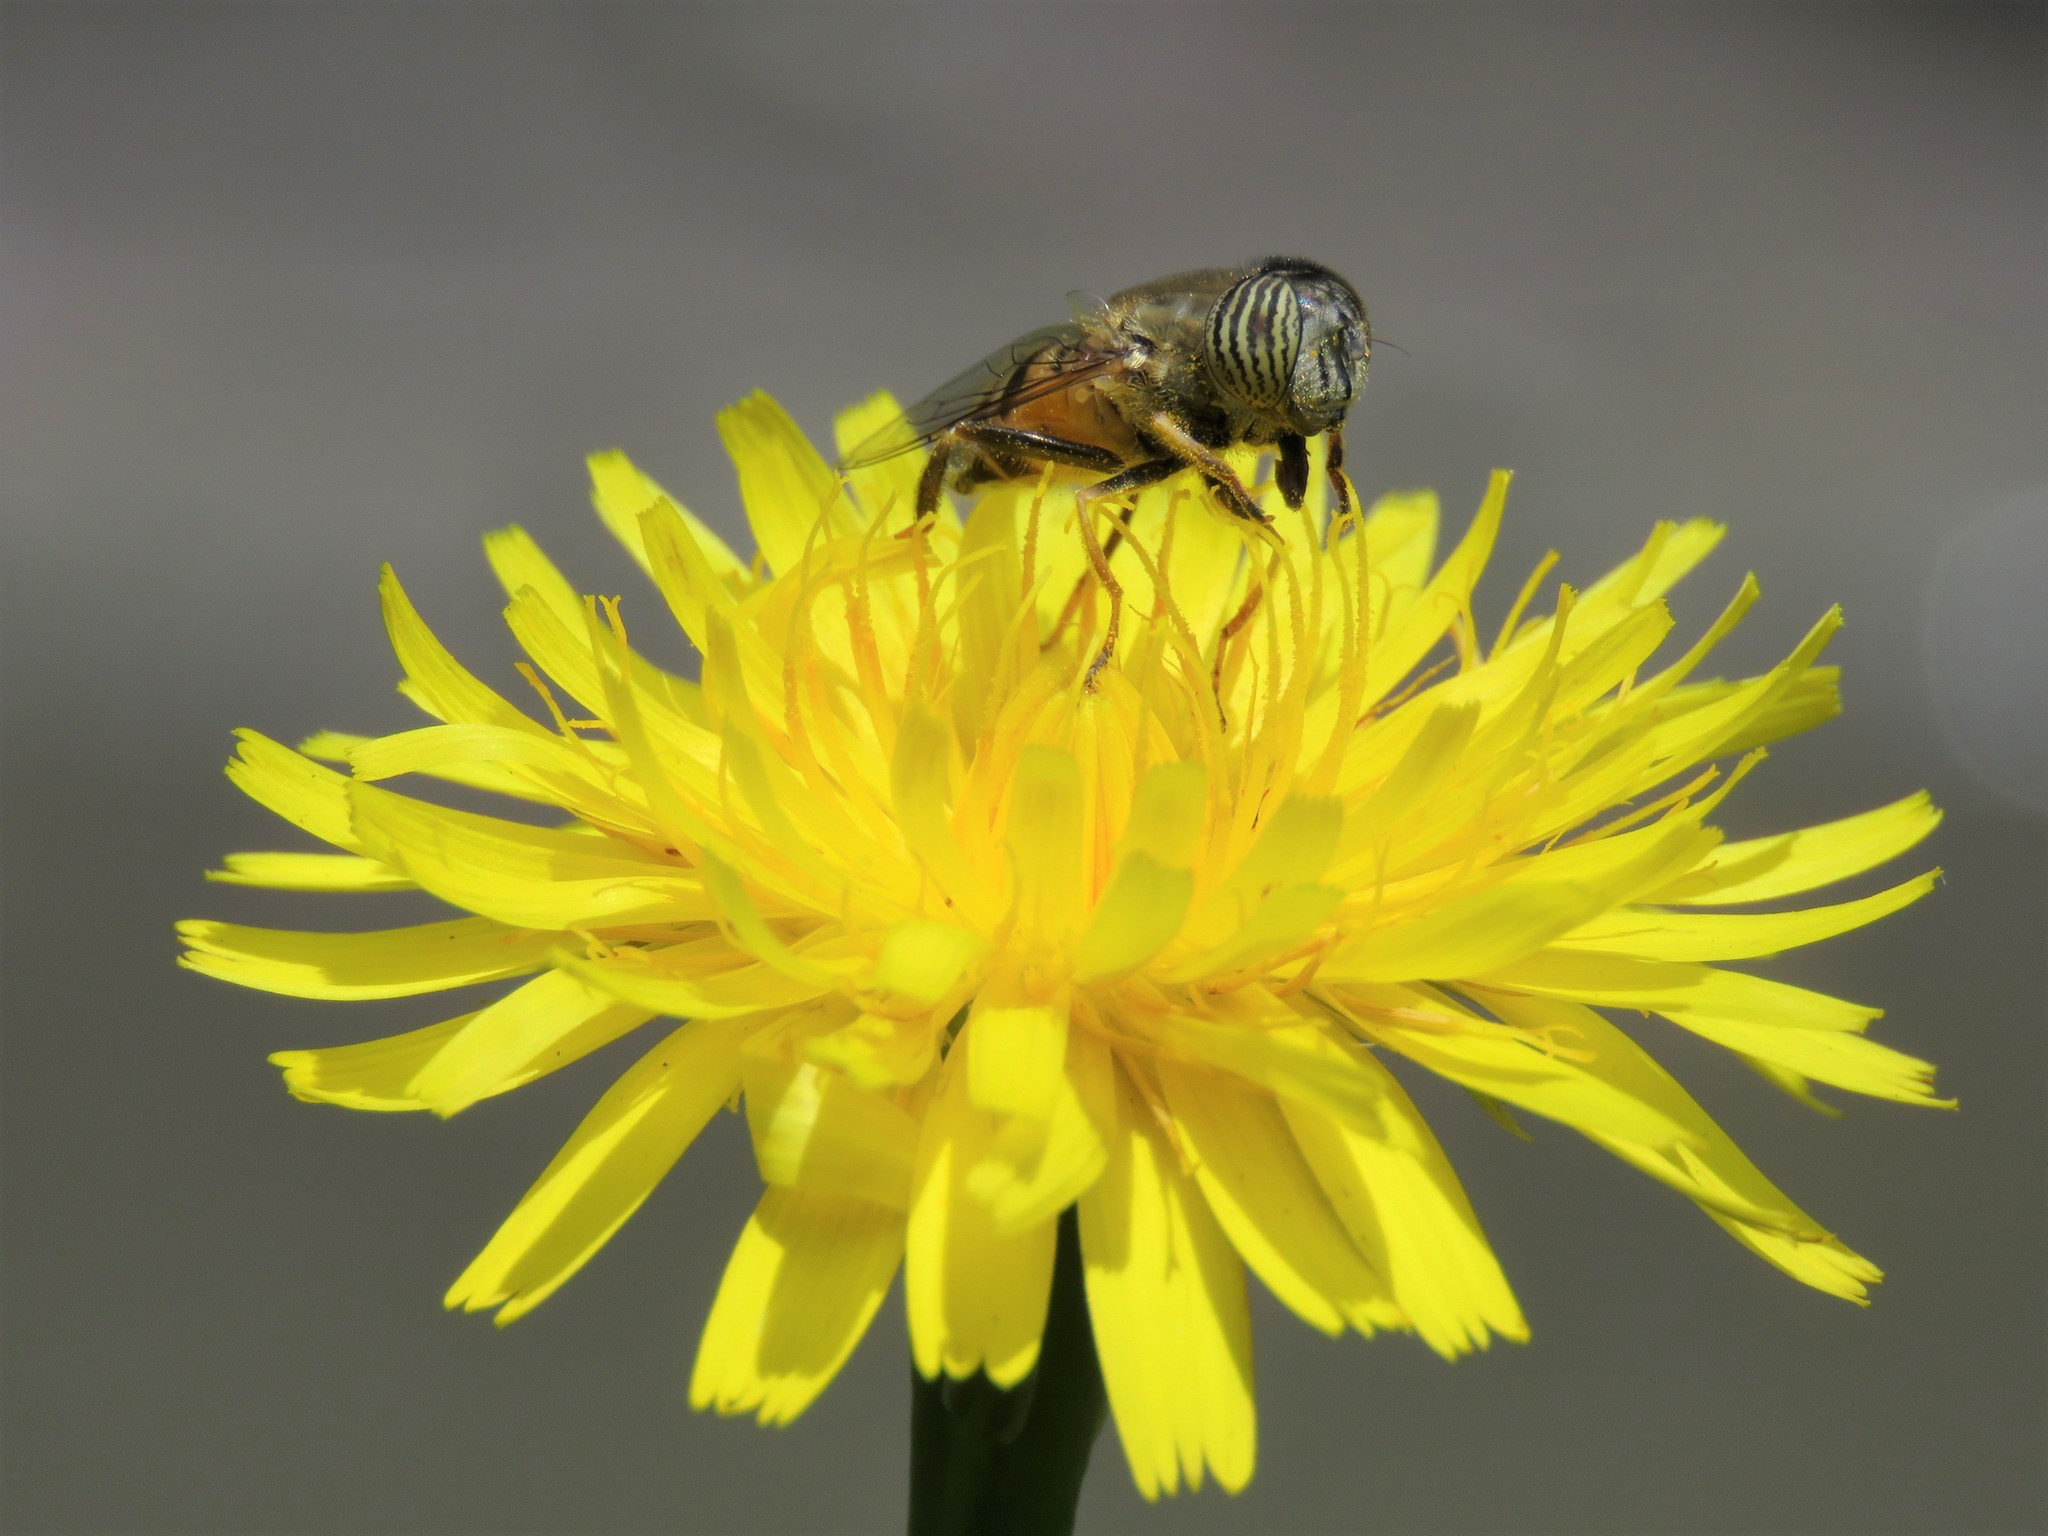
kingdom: Plantae
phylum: Tracheophyta
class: Magnoliopsida
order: Asterales
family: Asteraceae
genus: Hypochaeris
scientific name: Hypochaeris radicata
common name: Flatweed
